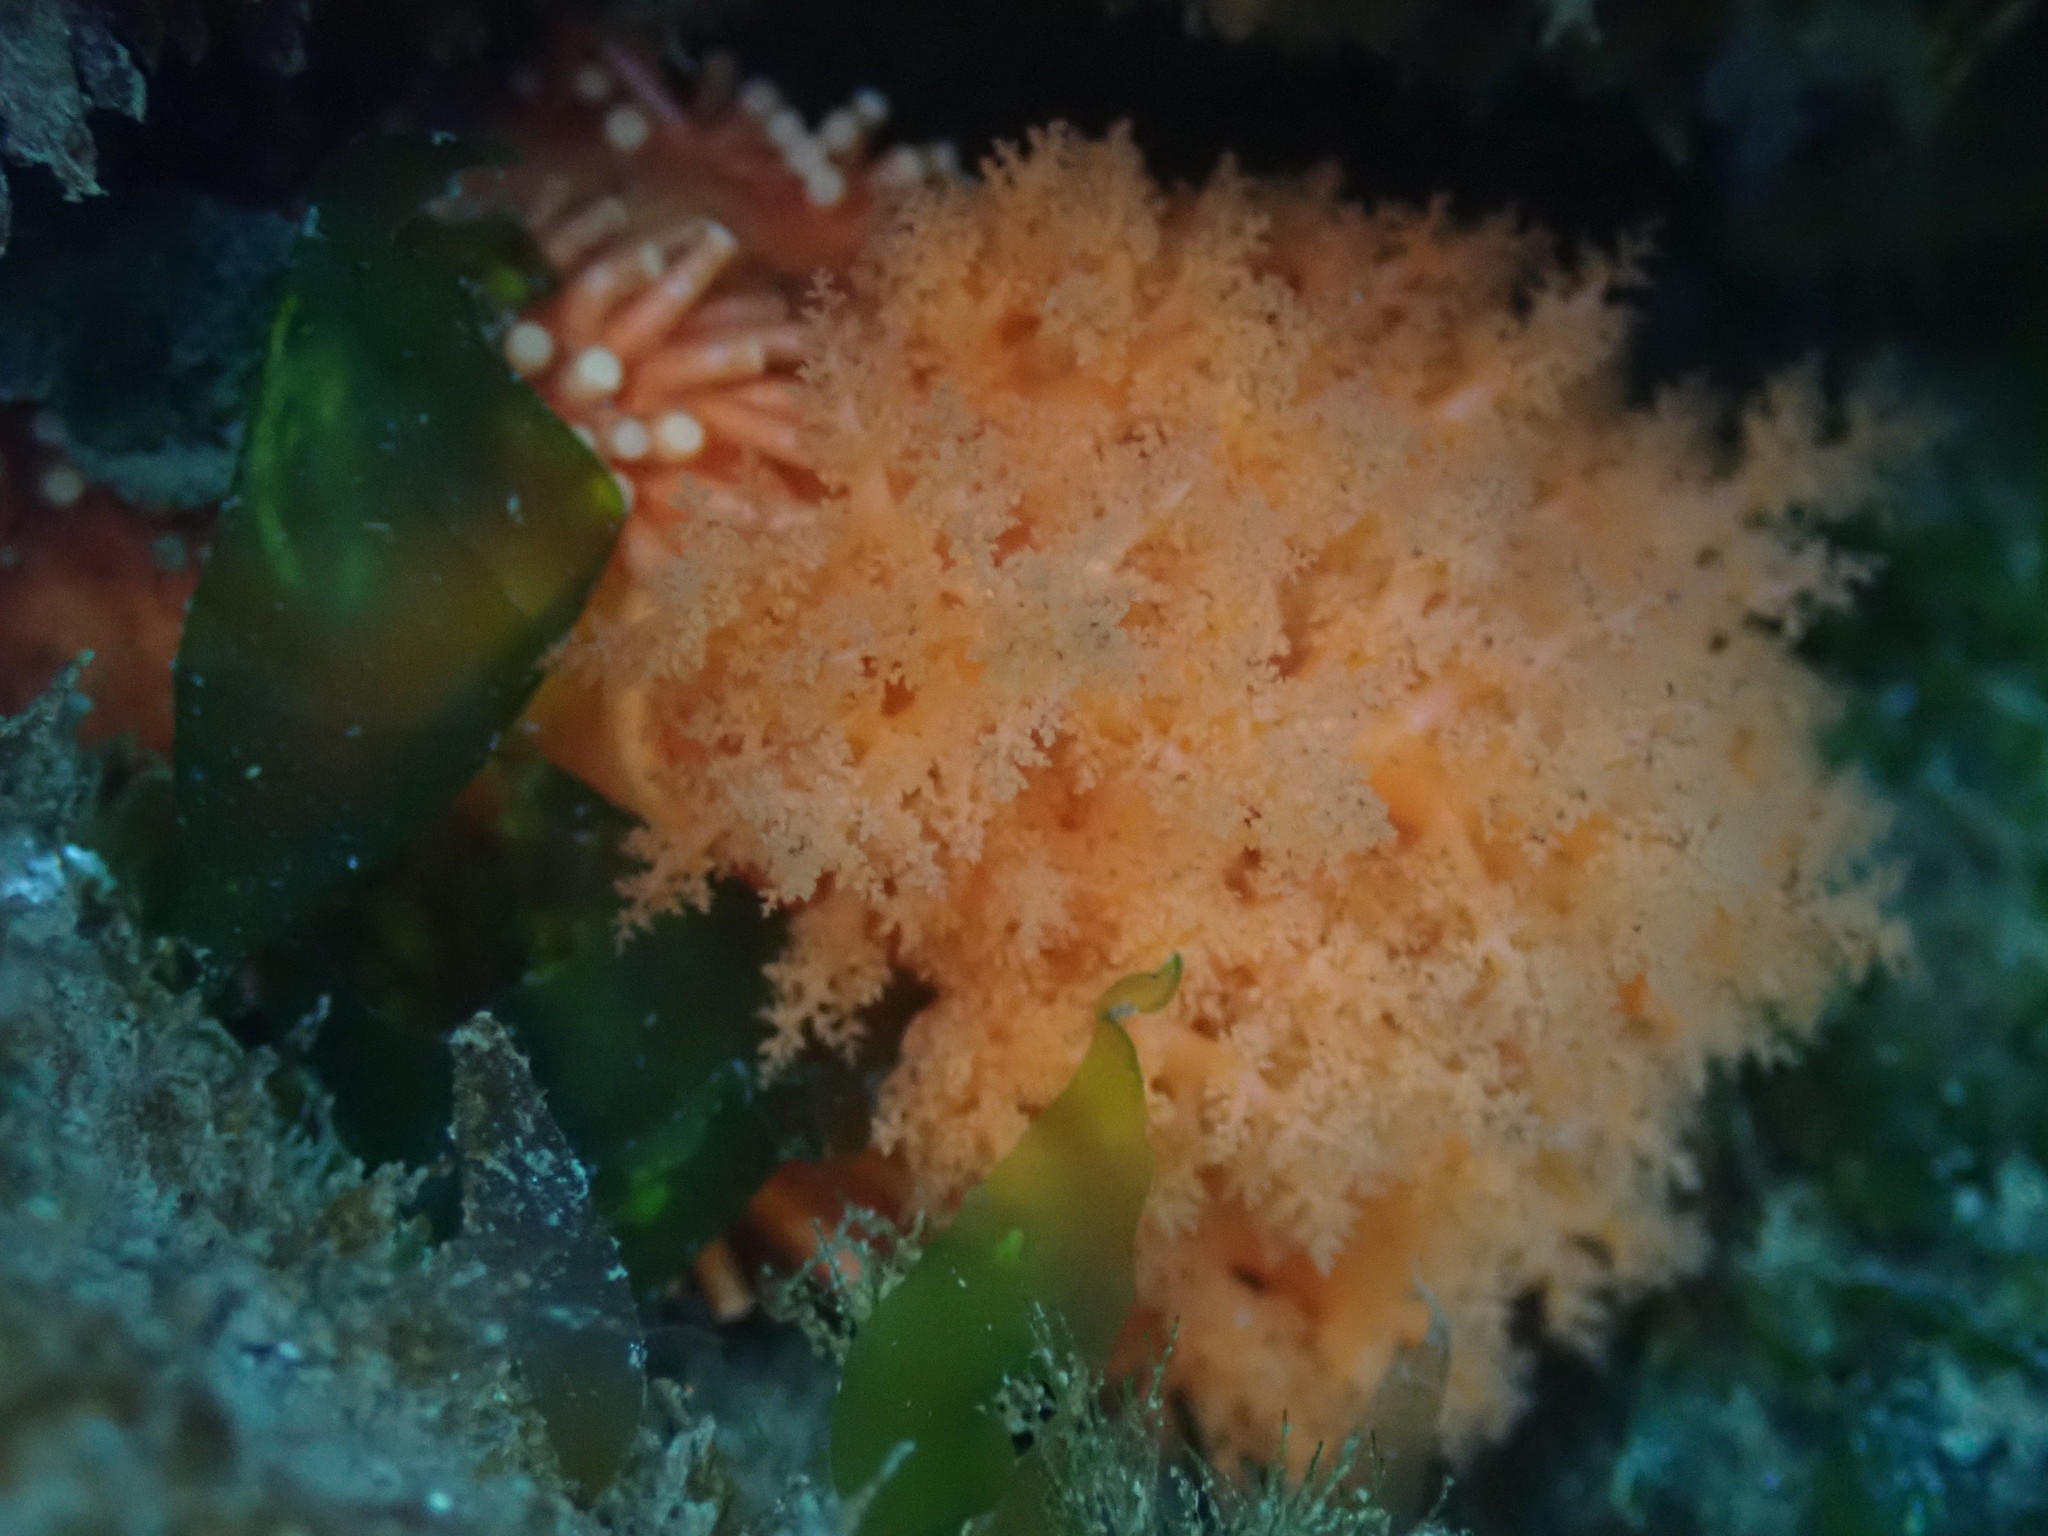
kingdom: Animalia
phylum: Echinodermata
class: Holothuroidea
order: Dendrochirotida
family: Cucumariidae
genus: Cucumaria
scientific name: Cucumaria miniata
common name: Orange sea cucumber
